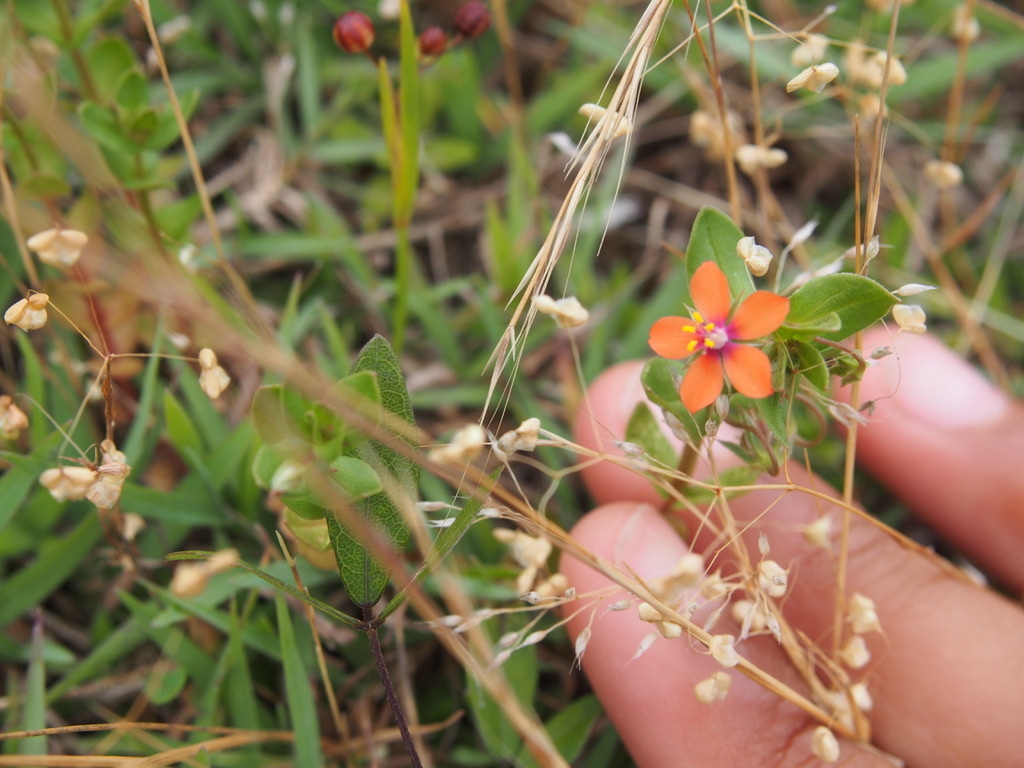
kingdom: Plantae
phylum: Tracheophyta
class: Magnoliopsida
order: Ericales
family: Primulaceae
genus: Lysimachia
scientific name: Lysimachia arvensis
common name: Scarlet pimpernel
